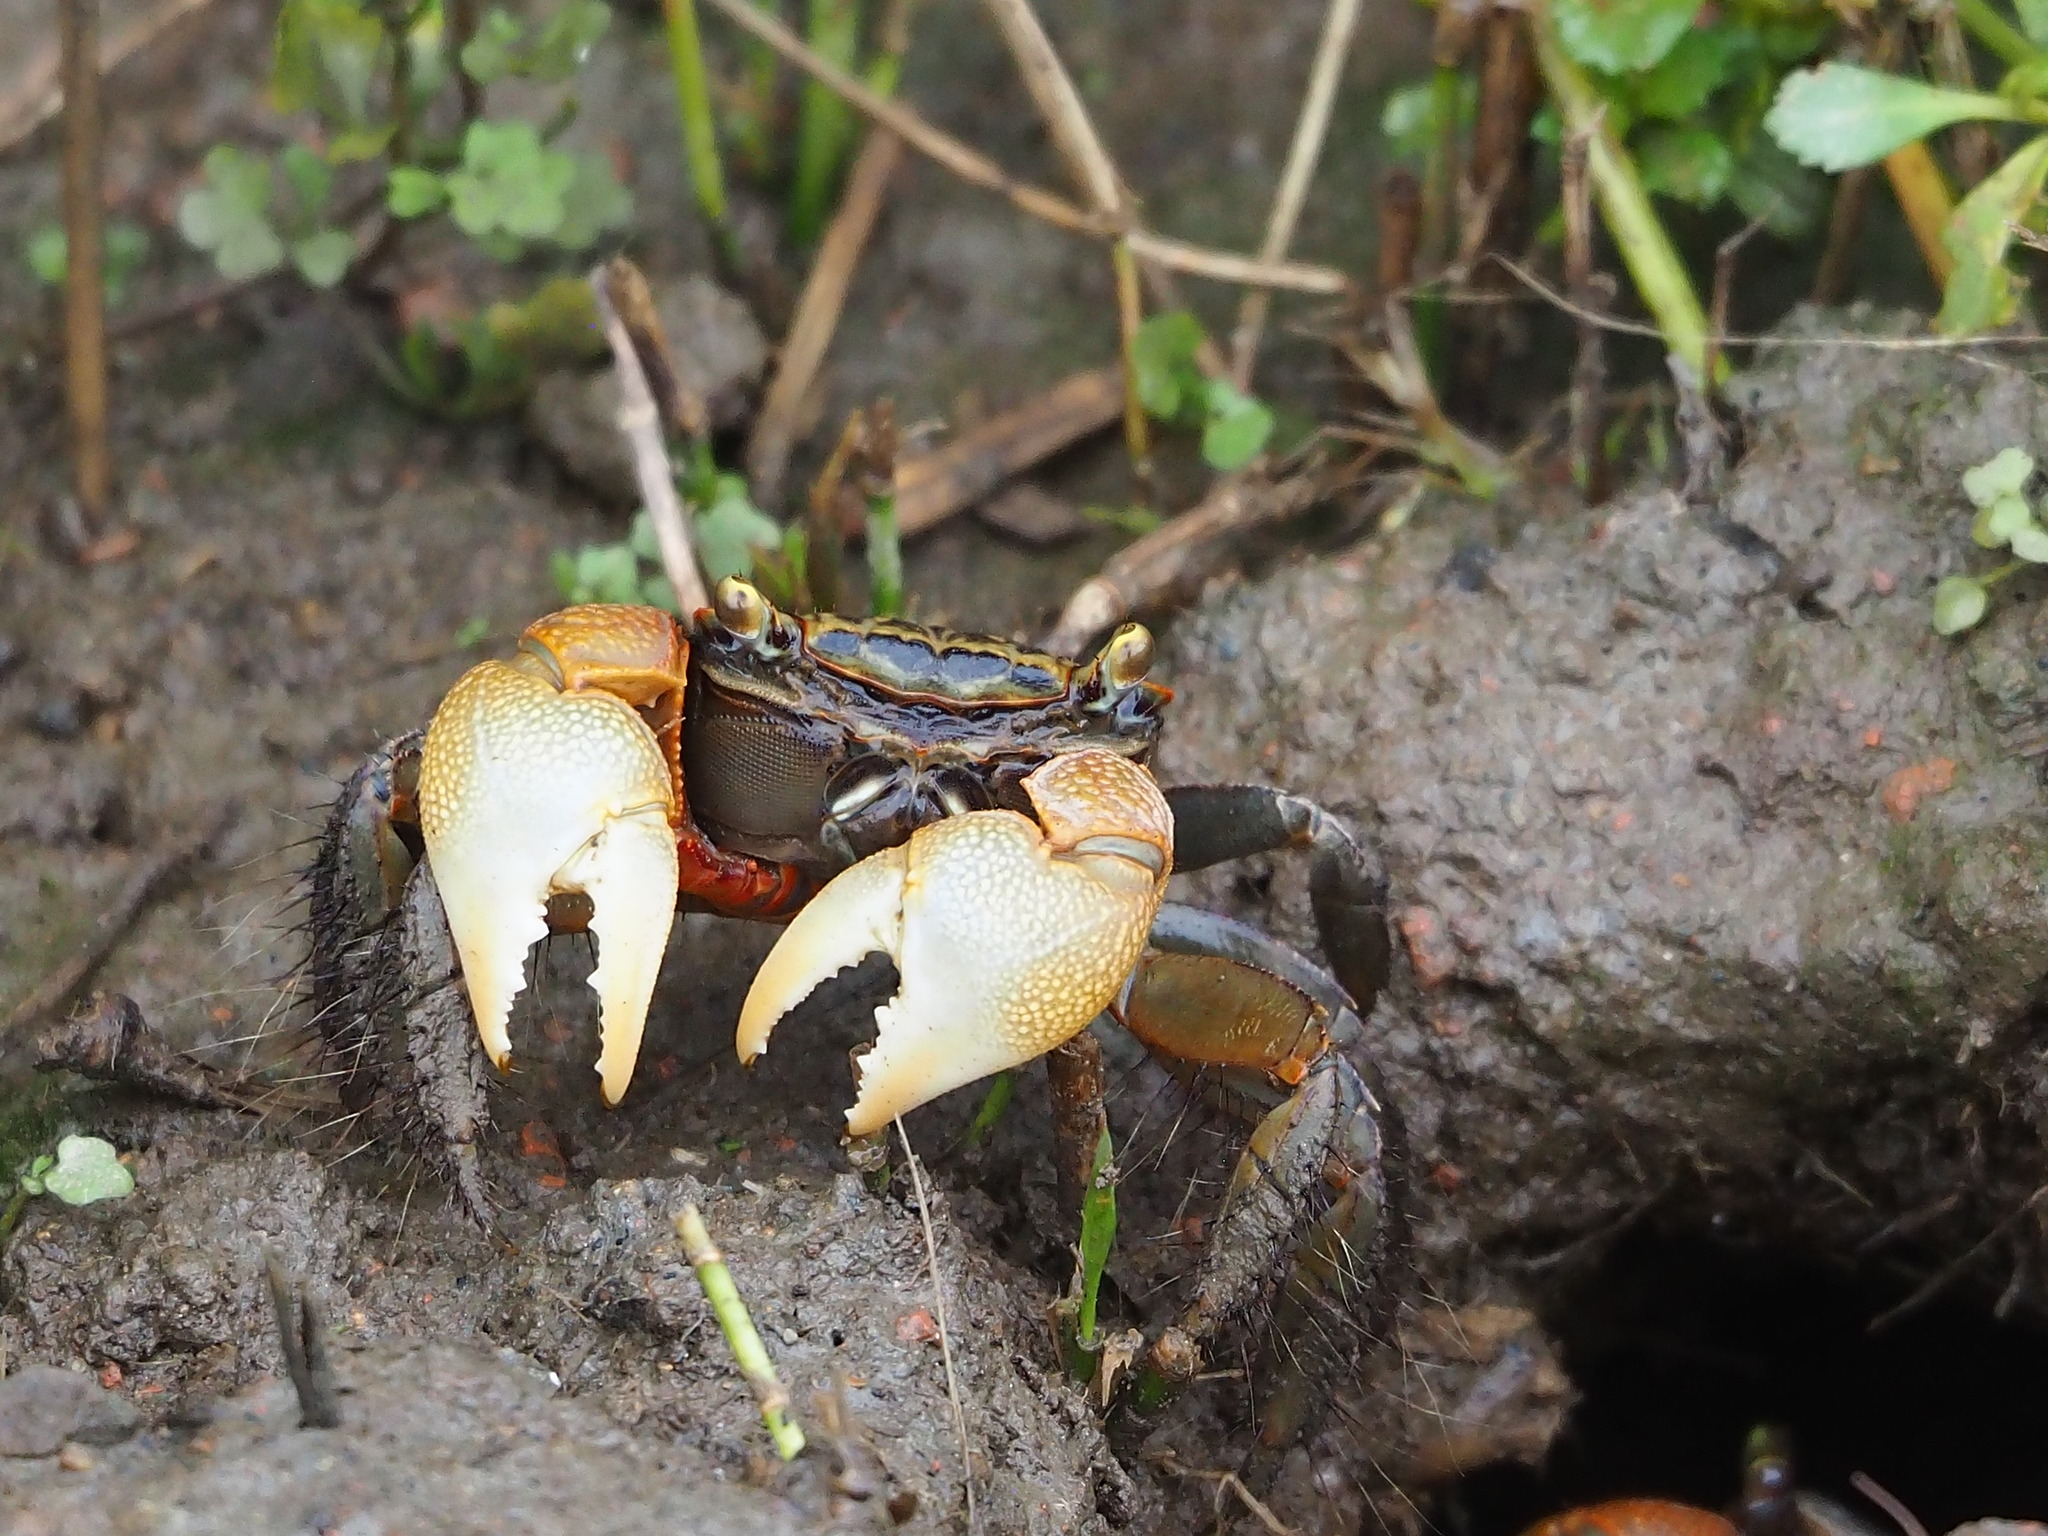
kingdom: Animalia
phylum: Arthropoda
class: Malacostraca
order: Decapoda
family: Sesarmidae
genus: Orisarma
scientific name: Orisarma dehaani
